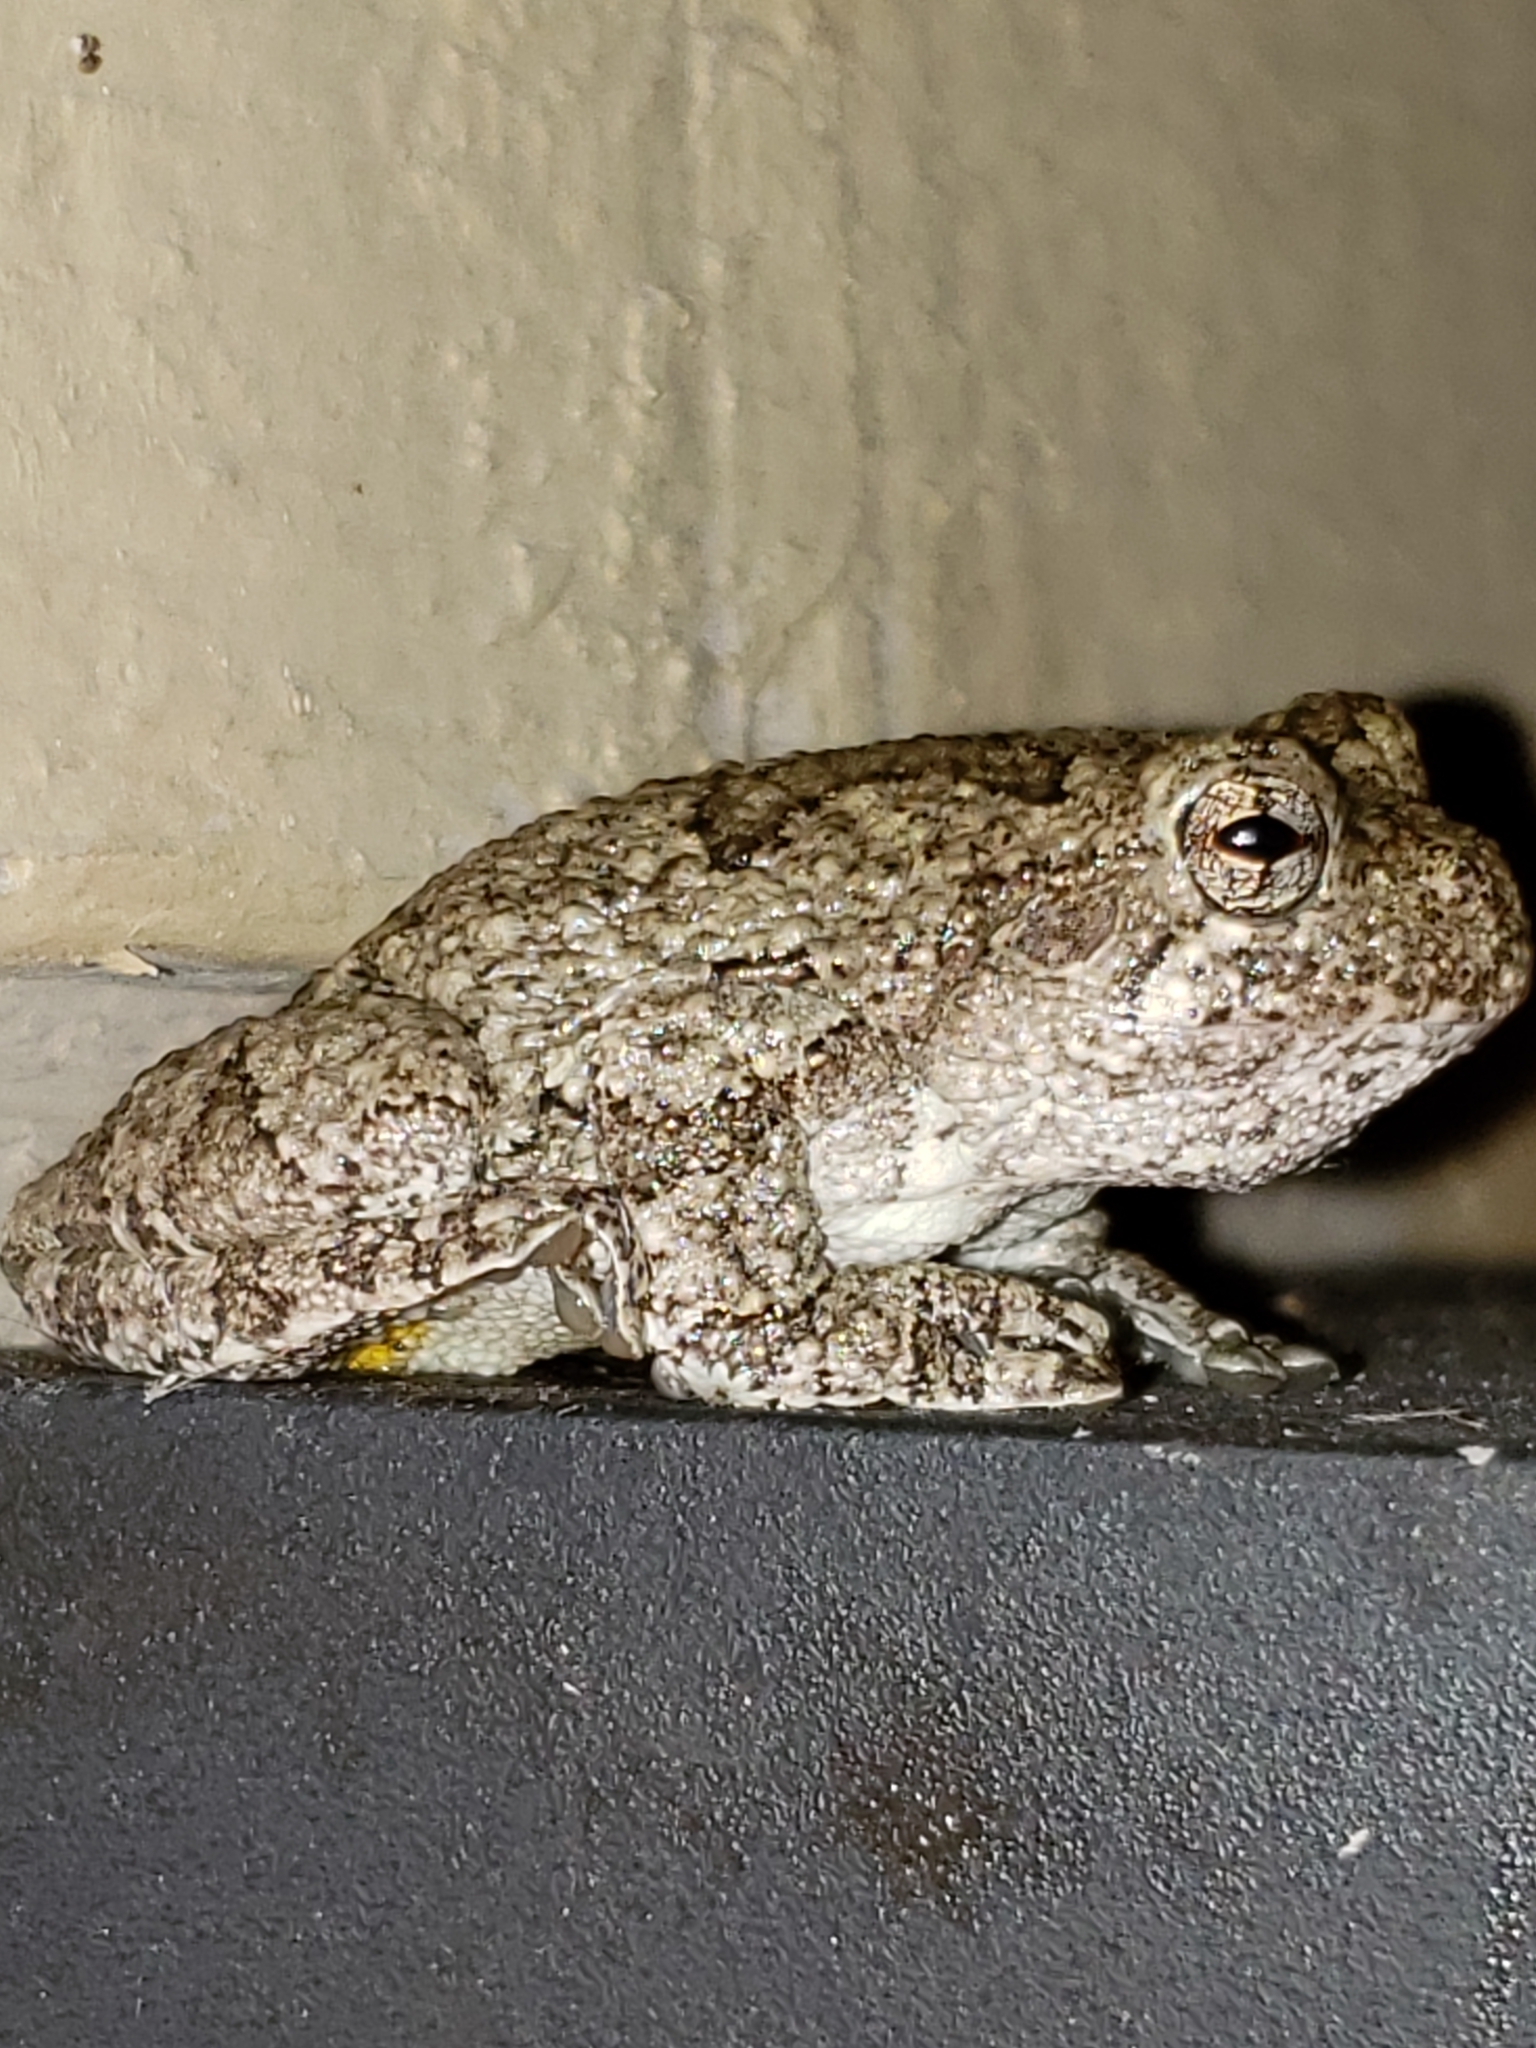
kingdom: Animalia
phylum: Chordata
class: Amphibia
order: Anura
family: Hylidae
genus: Hyla
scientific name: Hyla
